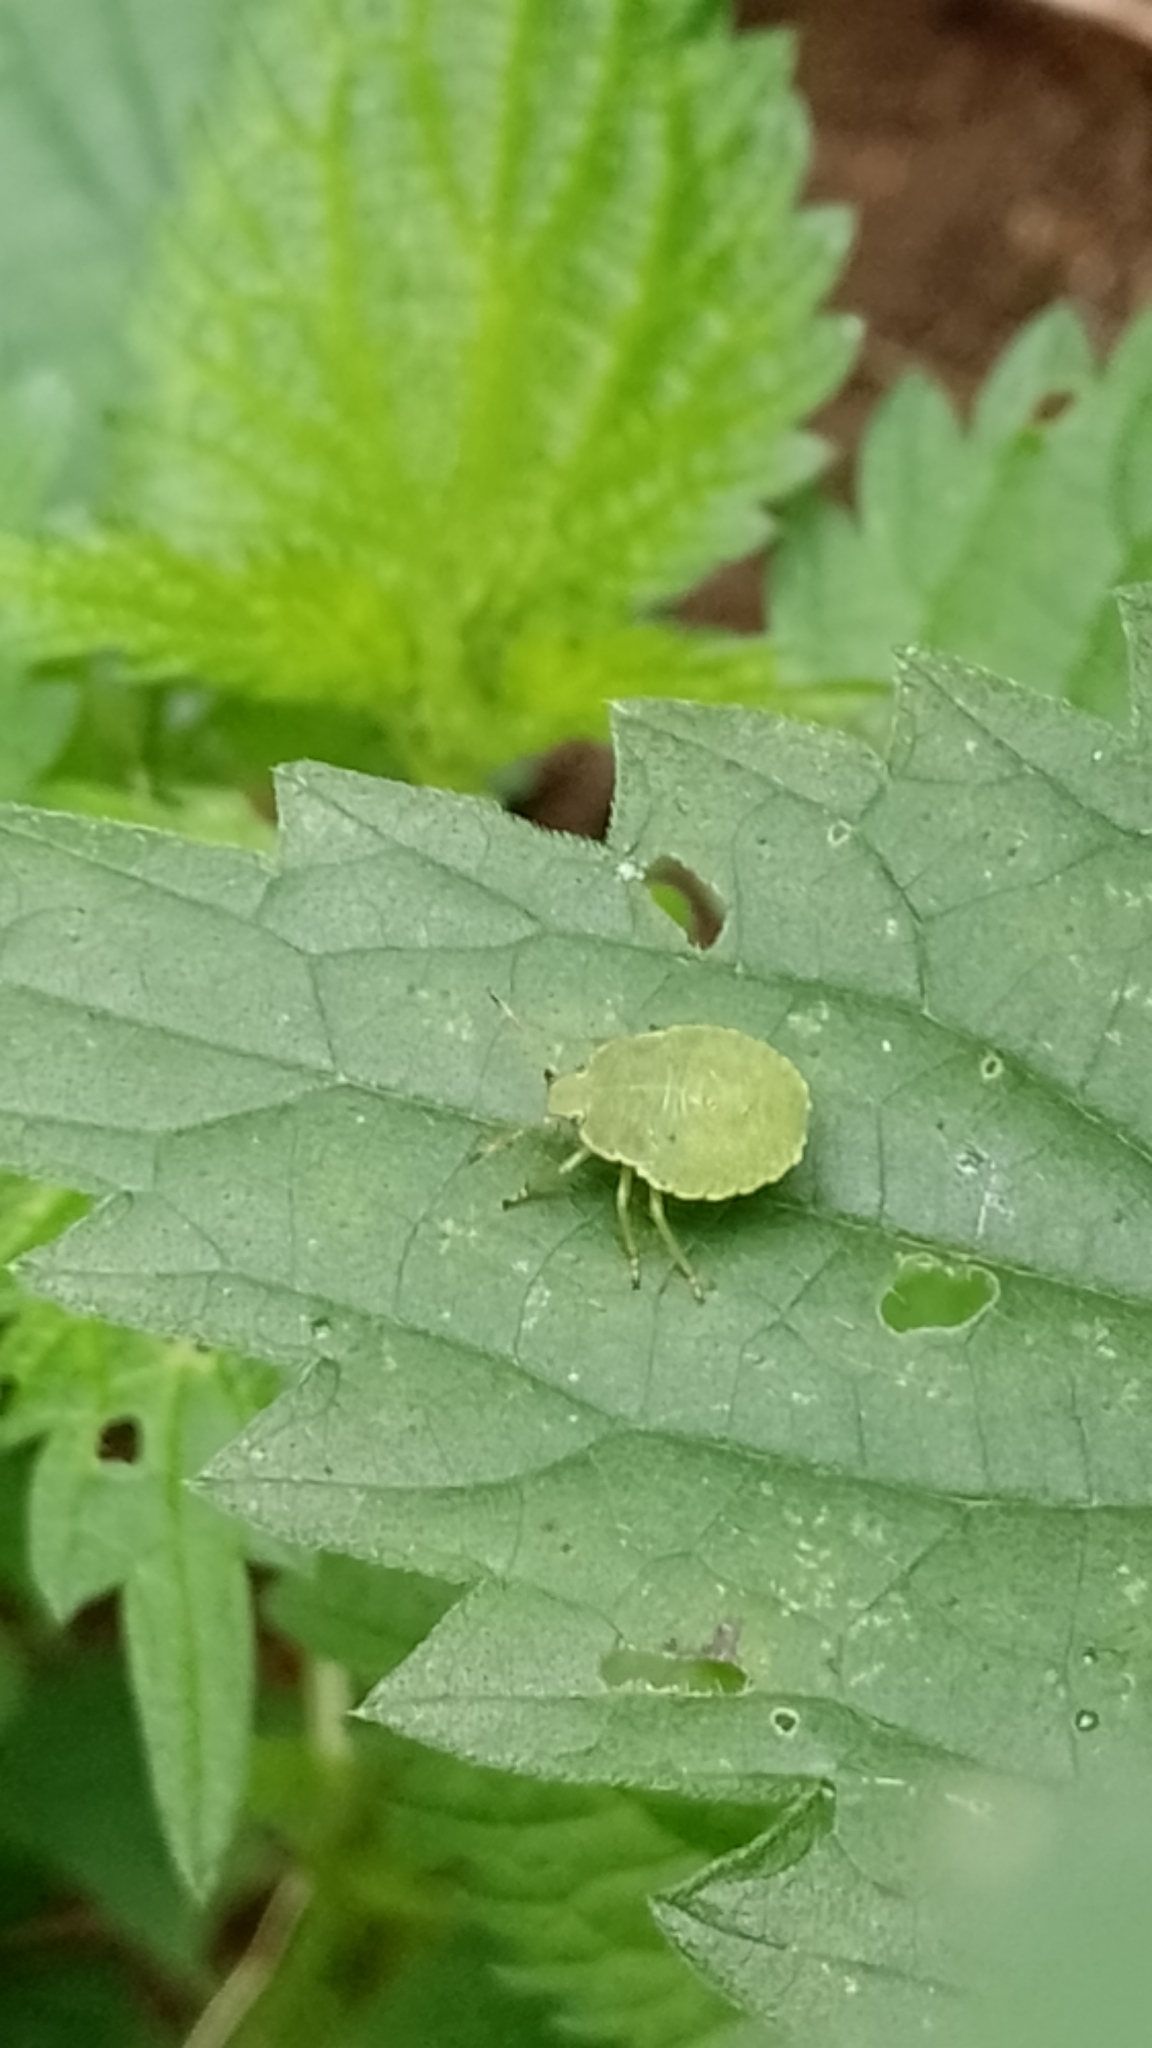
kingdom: Animalia
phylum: Arthropoda
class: Insecta
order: Hemiptera
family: Pentatomidae
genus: Palomena
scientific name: Palomena prasina
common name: Green shieldbug
